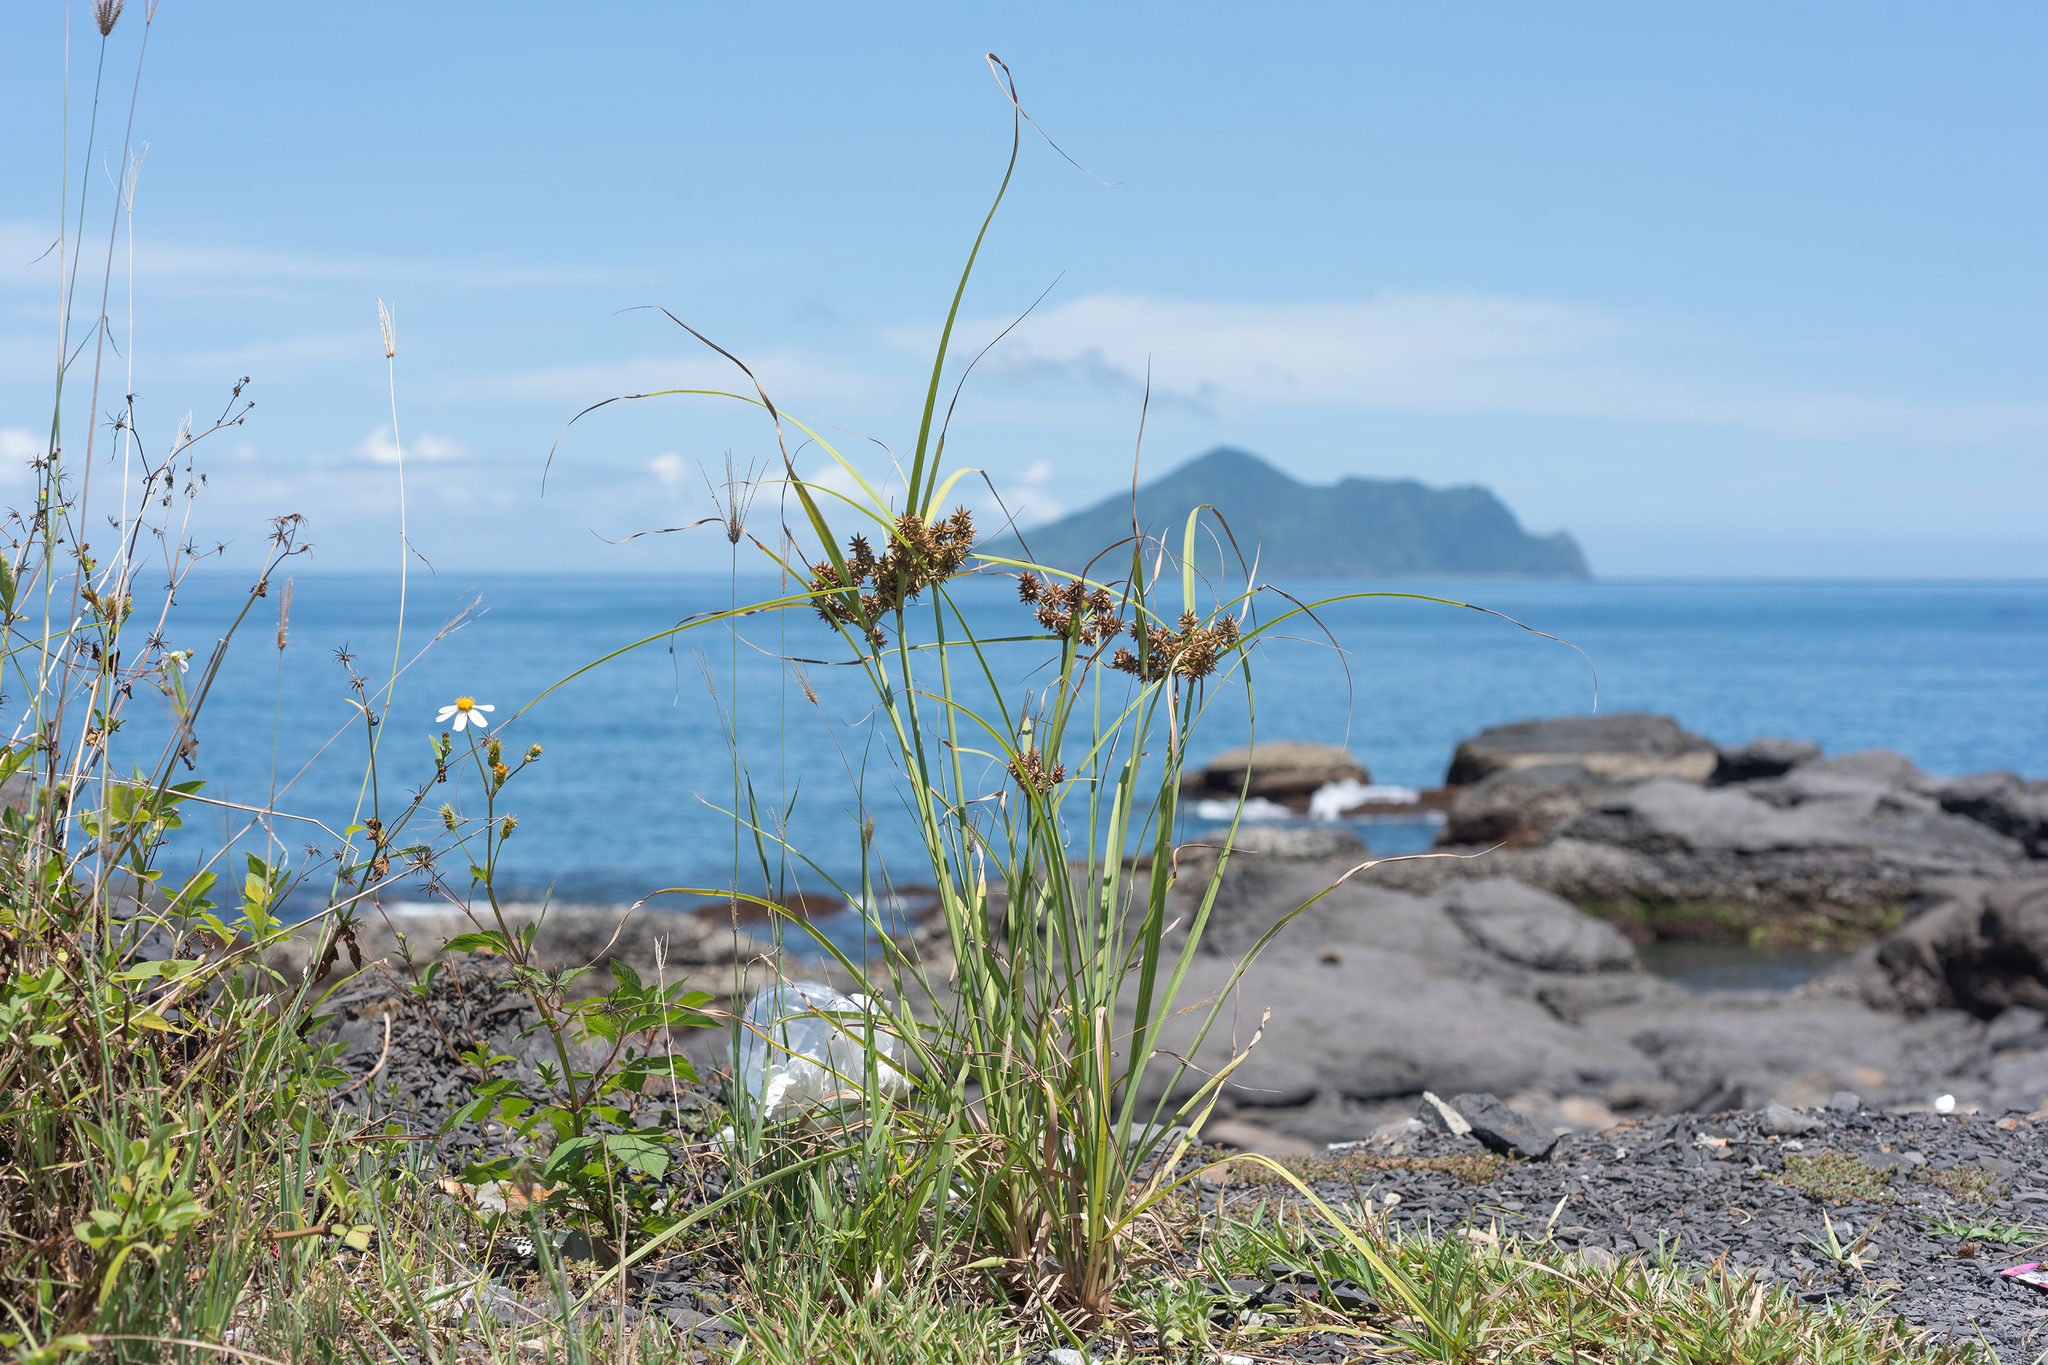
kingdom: Plantae
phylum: Tracheophyta
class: Liliopsida
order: Poales
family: Cyperaceae
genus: Cyperus
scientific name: Cyperus javanicus
